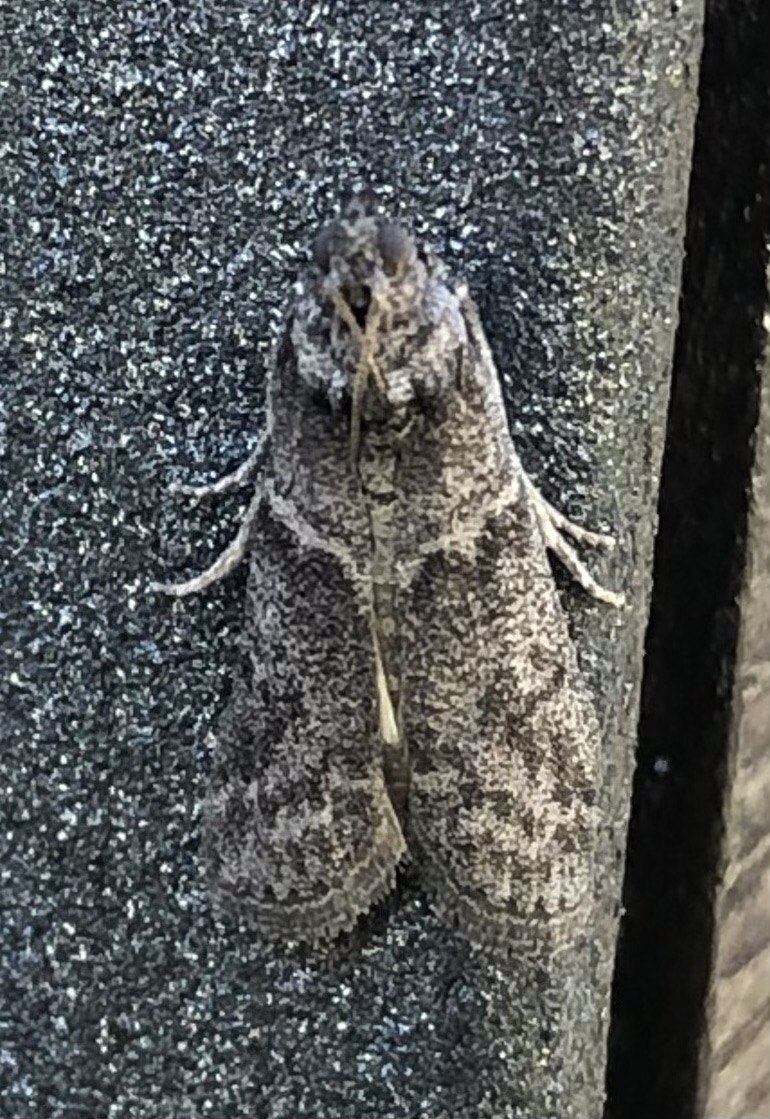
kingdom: Animalia
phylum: Arthropoda
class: Insecta
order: Lepidoptera
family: Pyralidae
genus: Ectomyelois
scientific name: Ectomyelois ceratoniae
